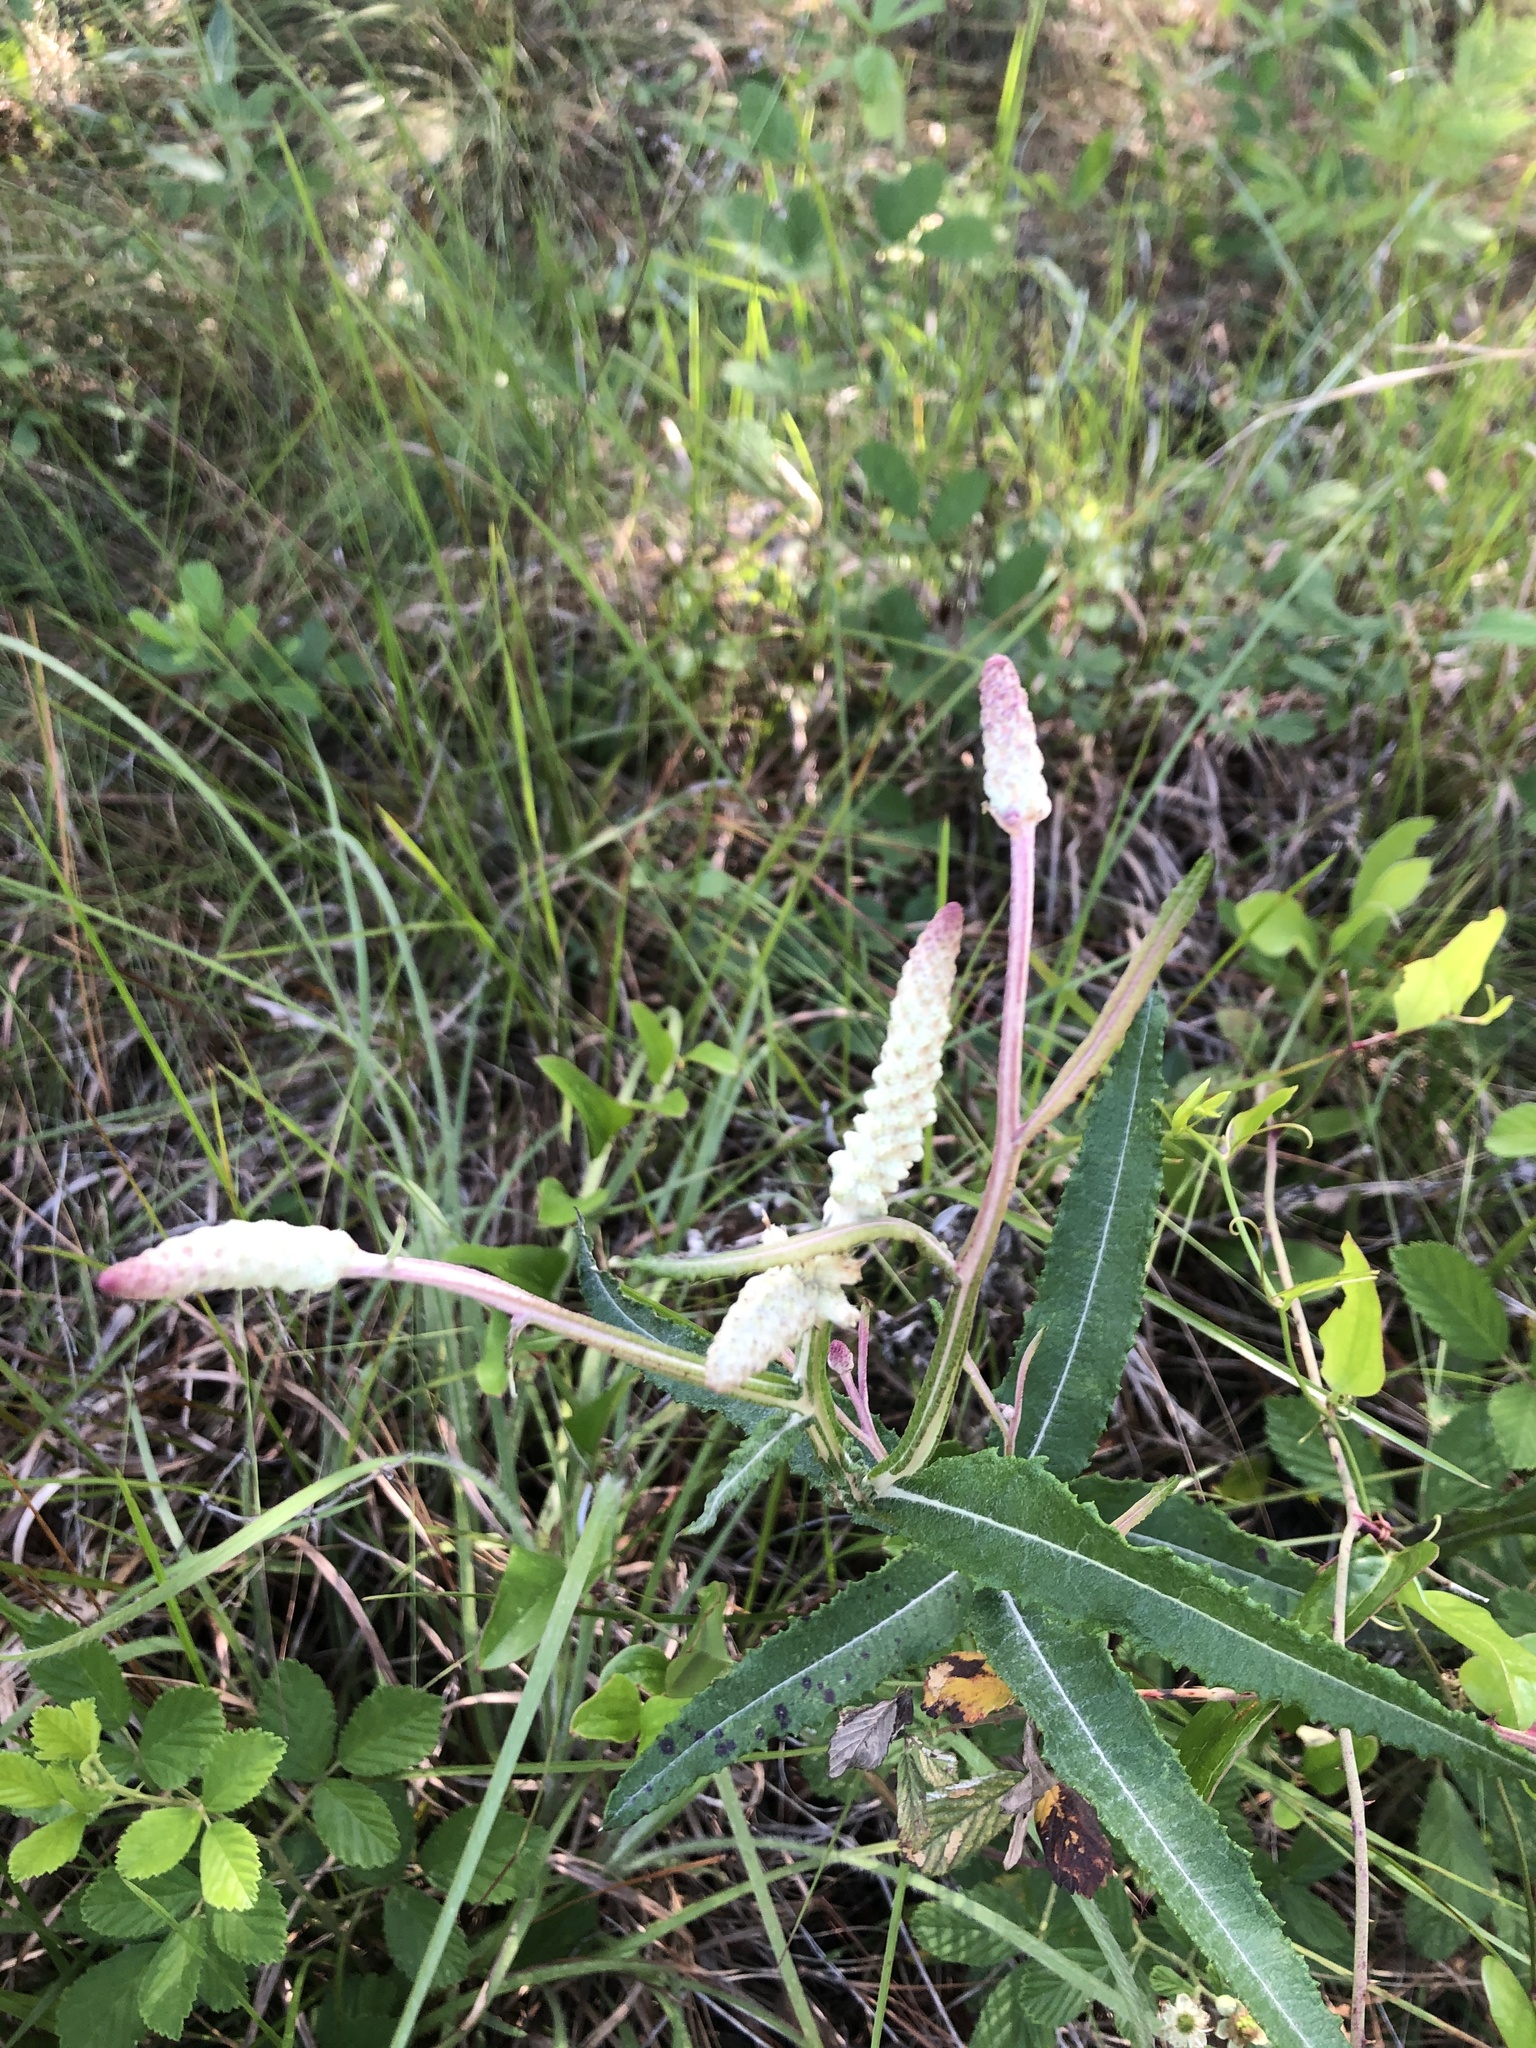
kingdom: Plantae
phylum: Tracheophyta
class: Magnoliopsida
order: Asterales
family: Asteraceae
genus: Pterocaulon
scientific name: Pterocaulon pycnostachyum
